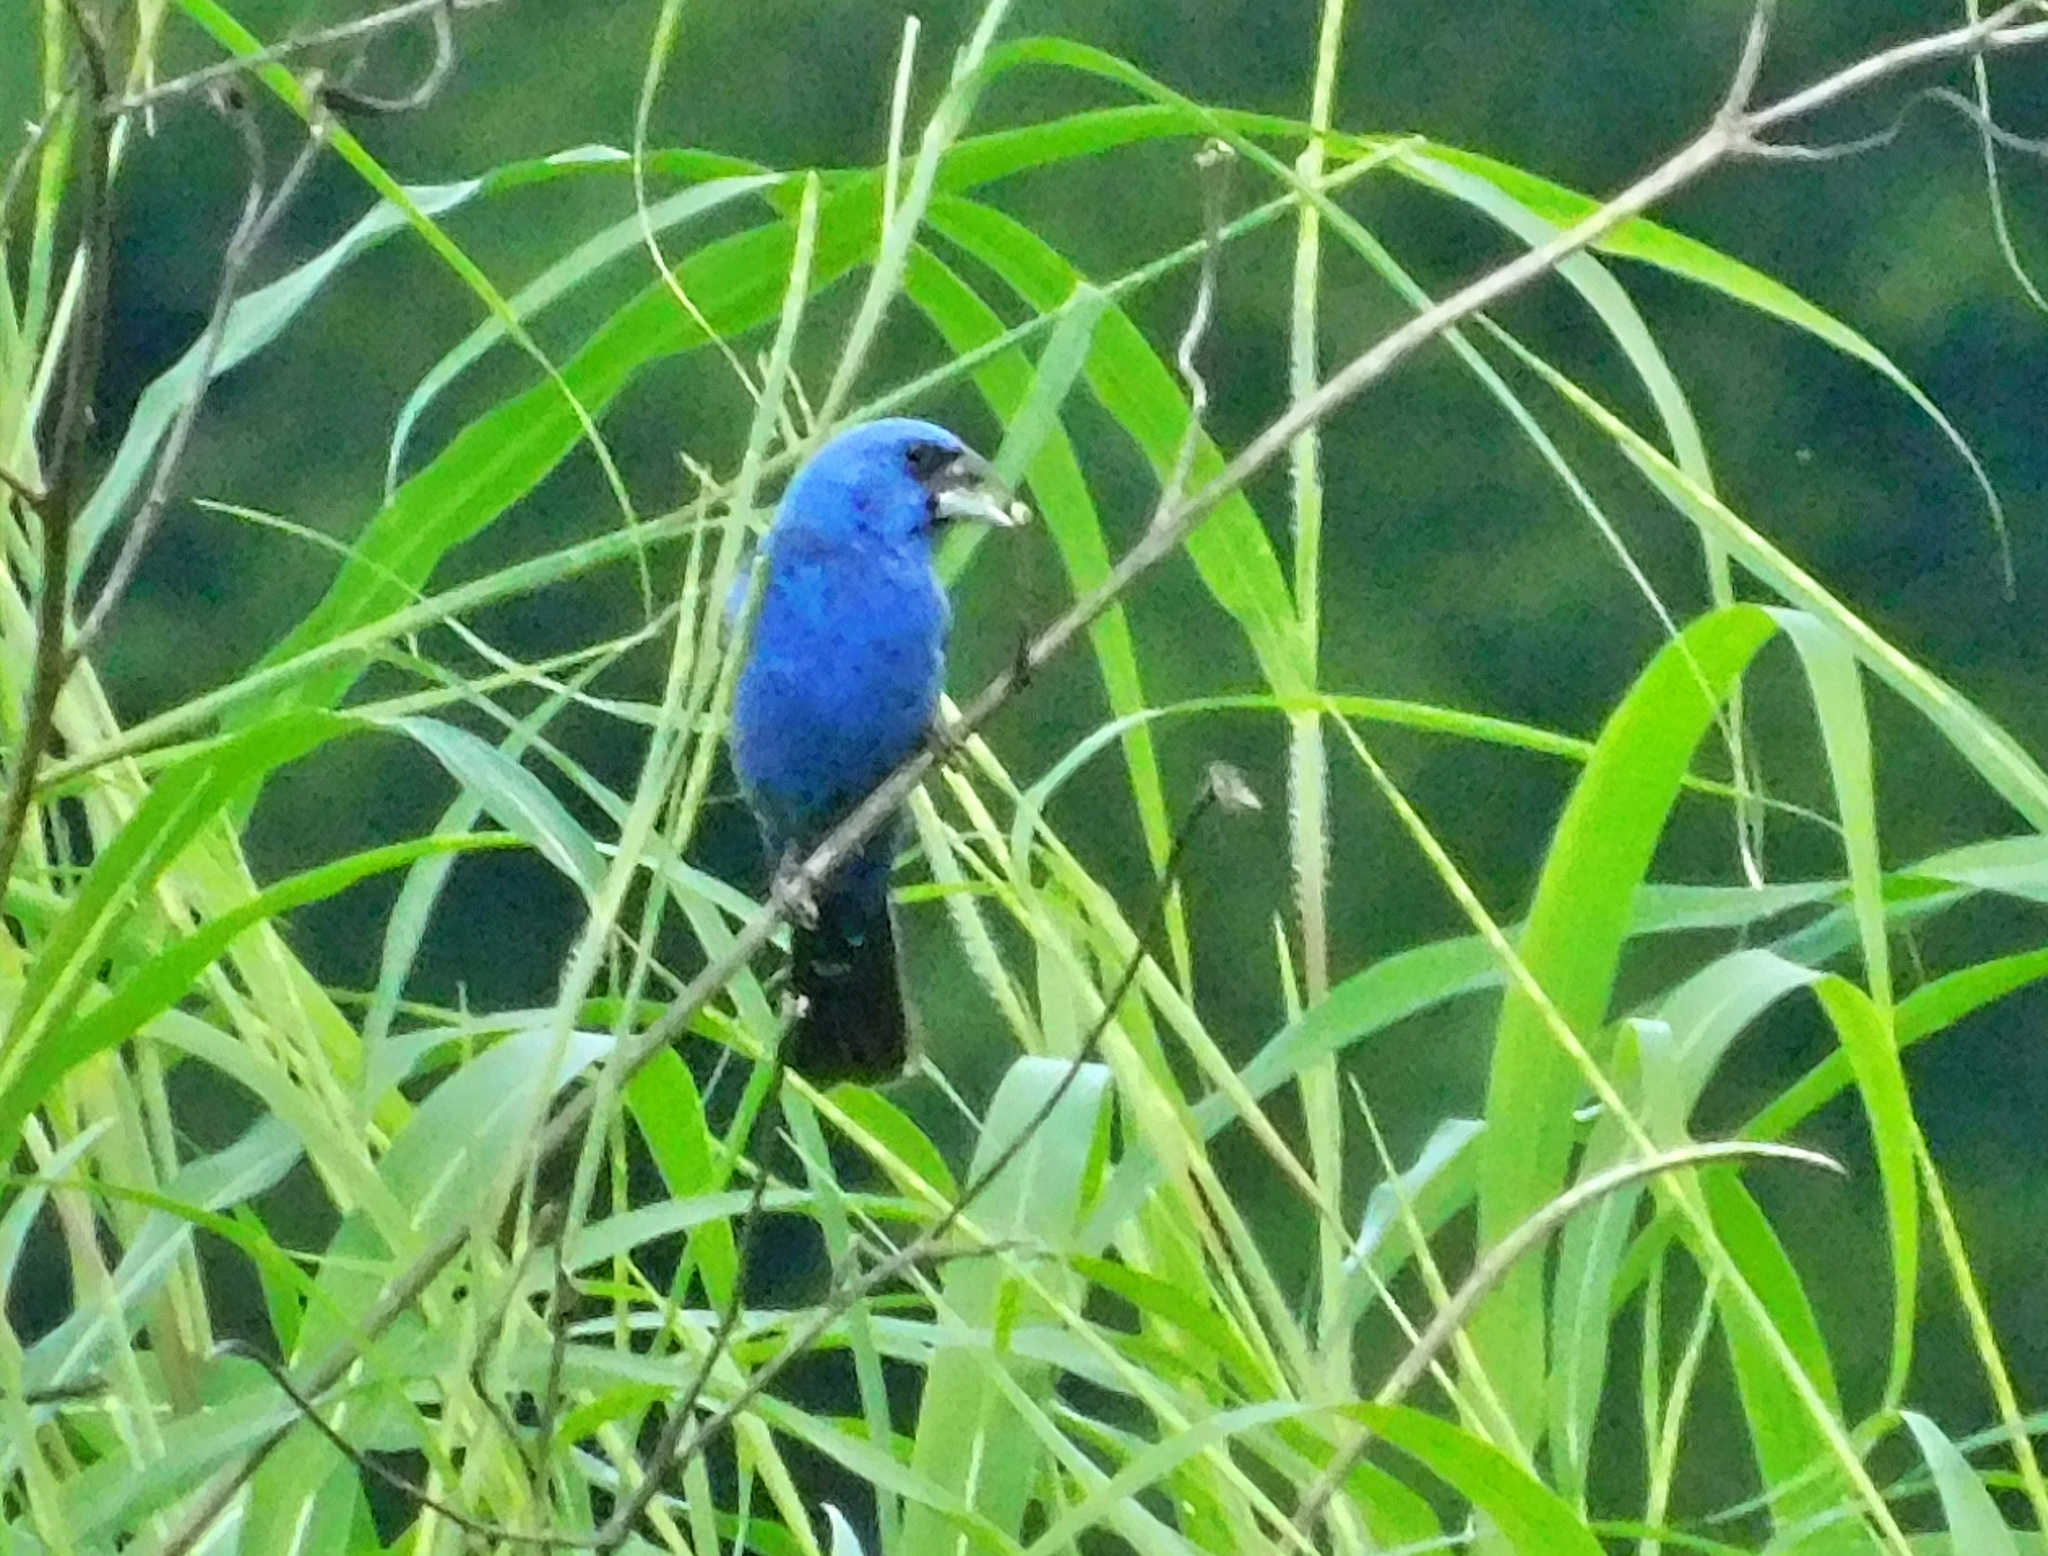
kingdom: Animalia
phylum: Chordata
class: Aves
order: Passeriformes
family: Cardinalidae
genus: Passerina
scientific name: Passerina caerulea
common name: Blue grosbeak
